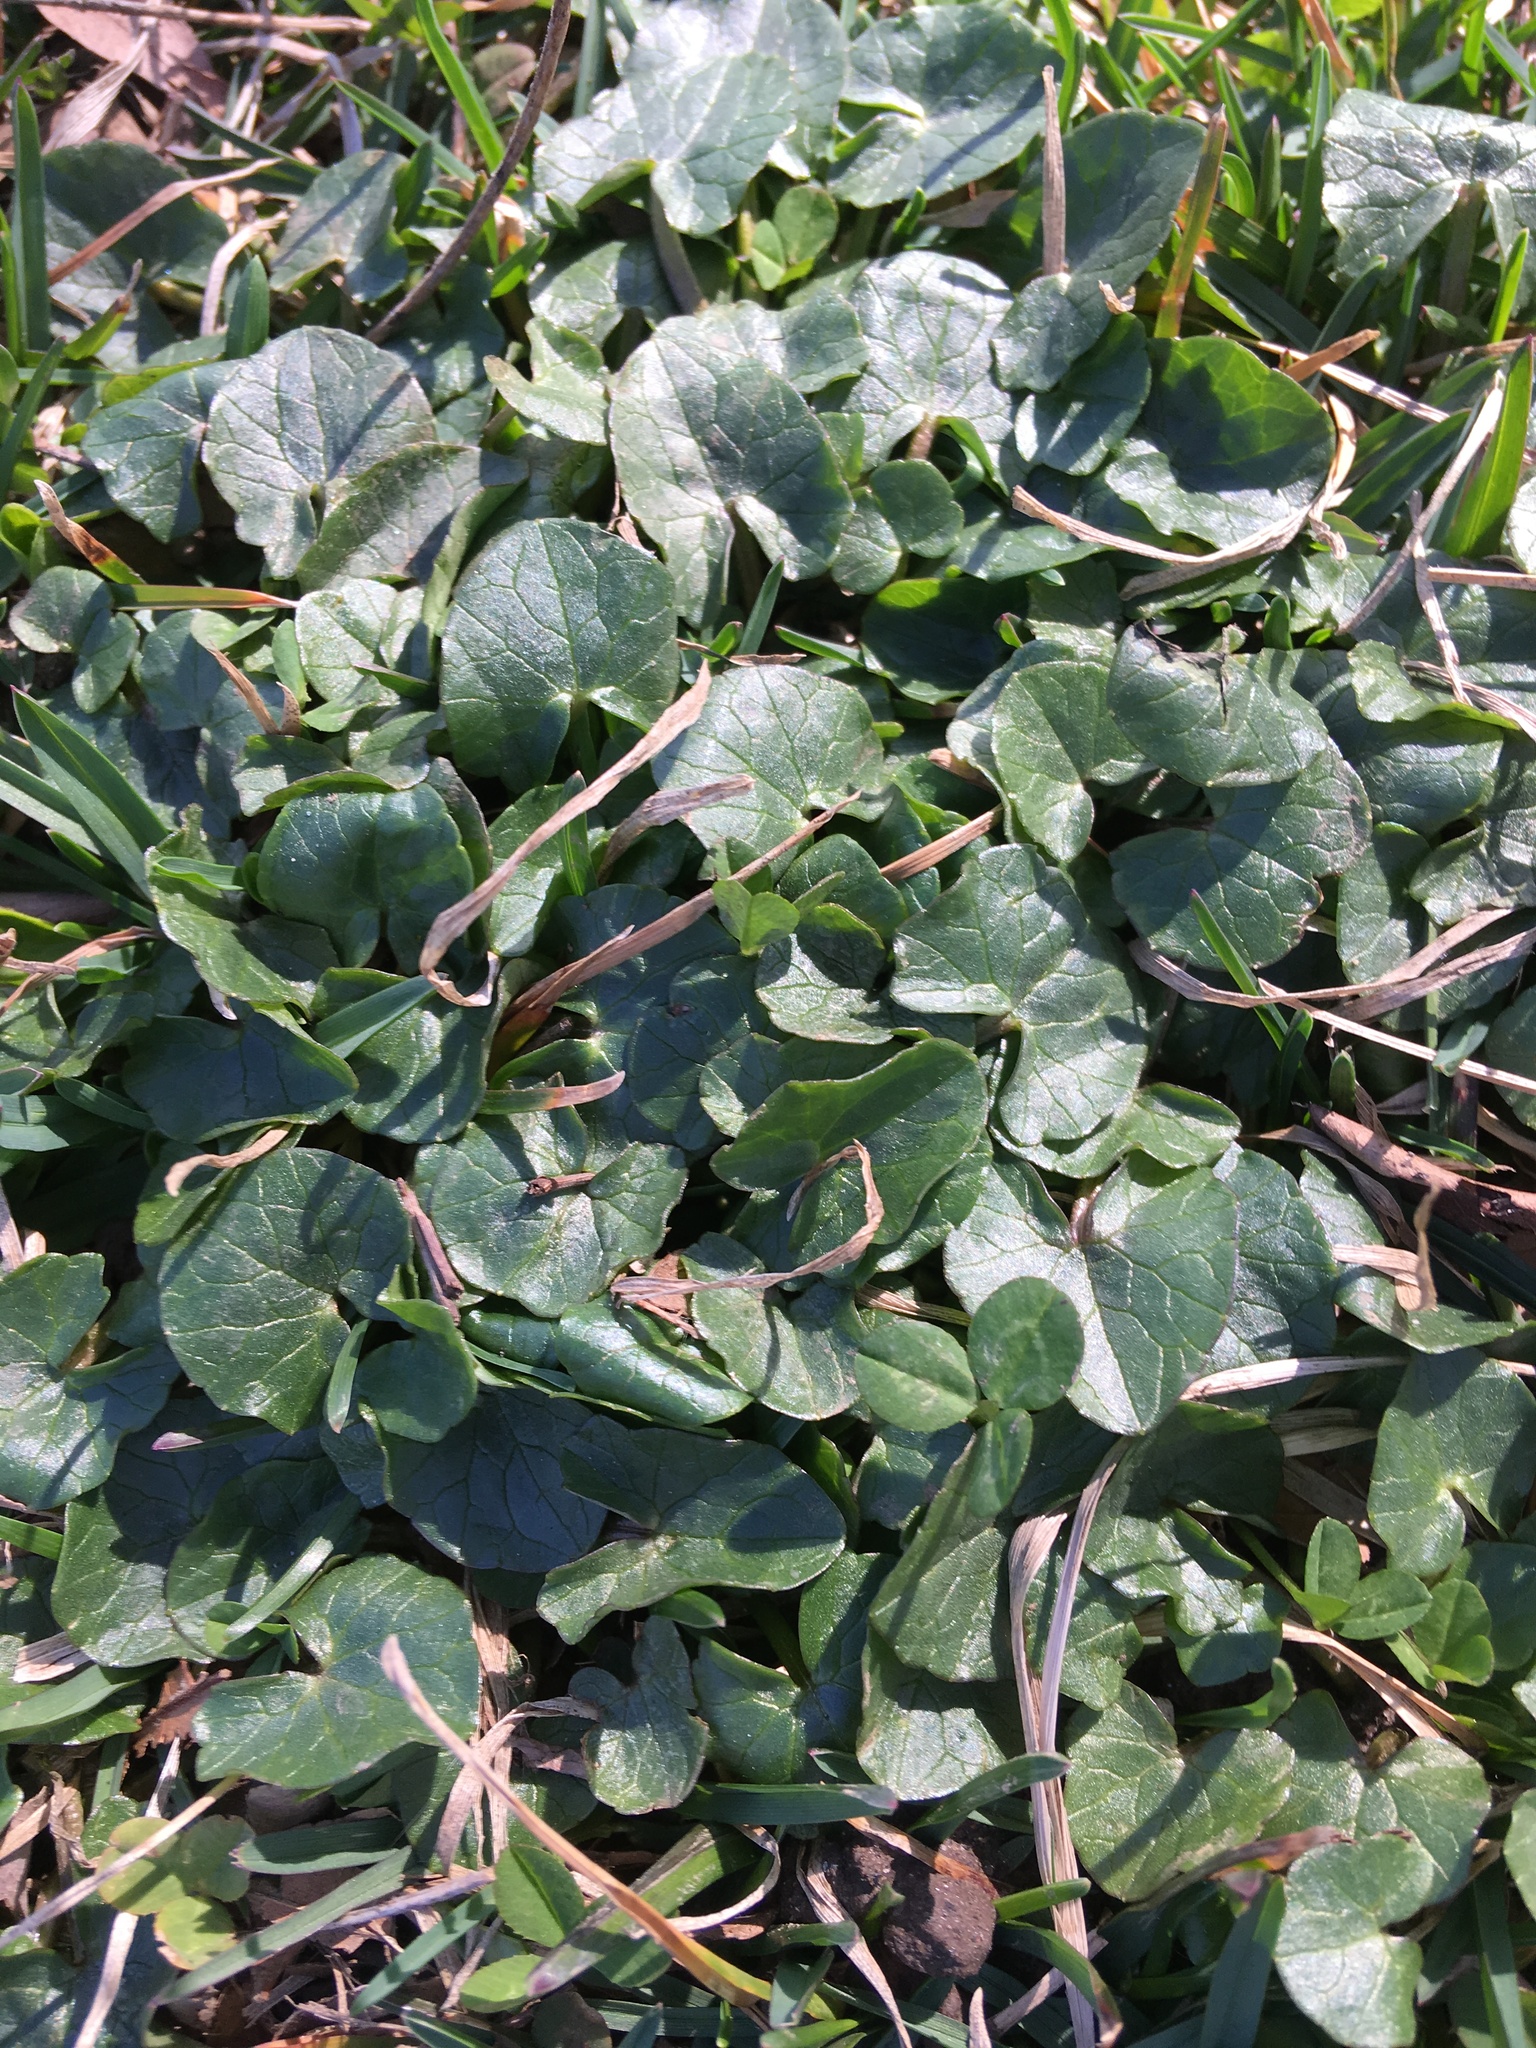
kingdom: Plantae
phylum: Tracheophyta
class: Magnoliopsida
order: Ranunculales
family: Ranunculaceae
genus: Ficaria
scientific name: Ficaria verna
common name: Lesser celandine
